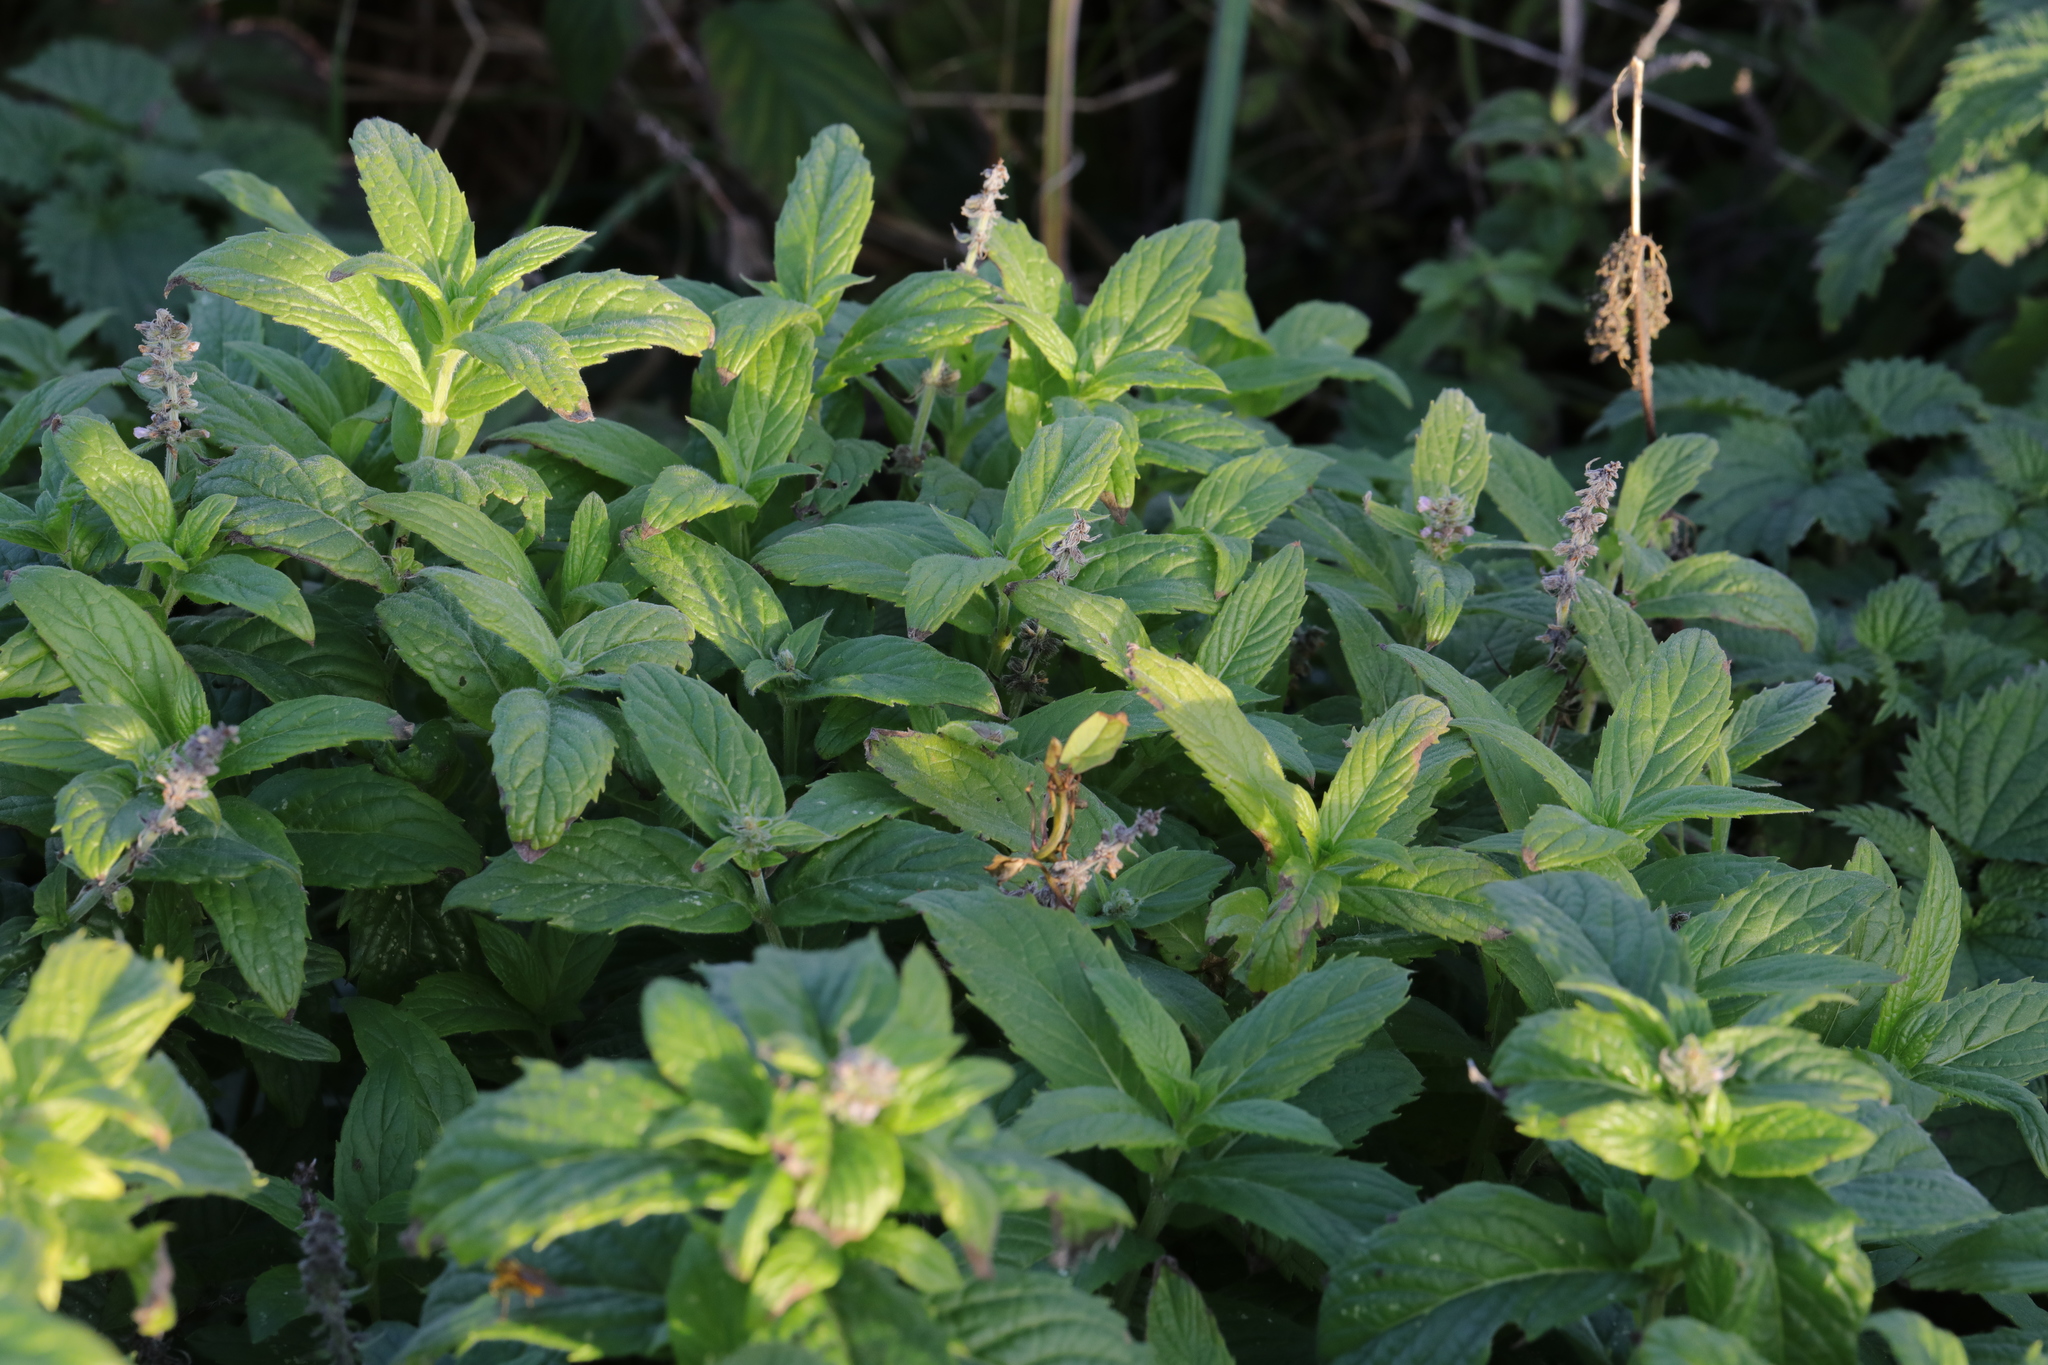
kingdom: Plantae
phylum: Tracheophyta
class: Magnoliopsida
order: Lamiales
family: Lamiaceae
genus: Mentha
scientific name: Mentha spicata
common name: Spearmint
